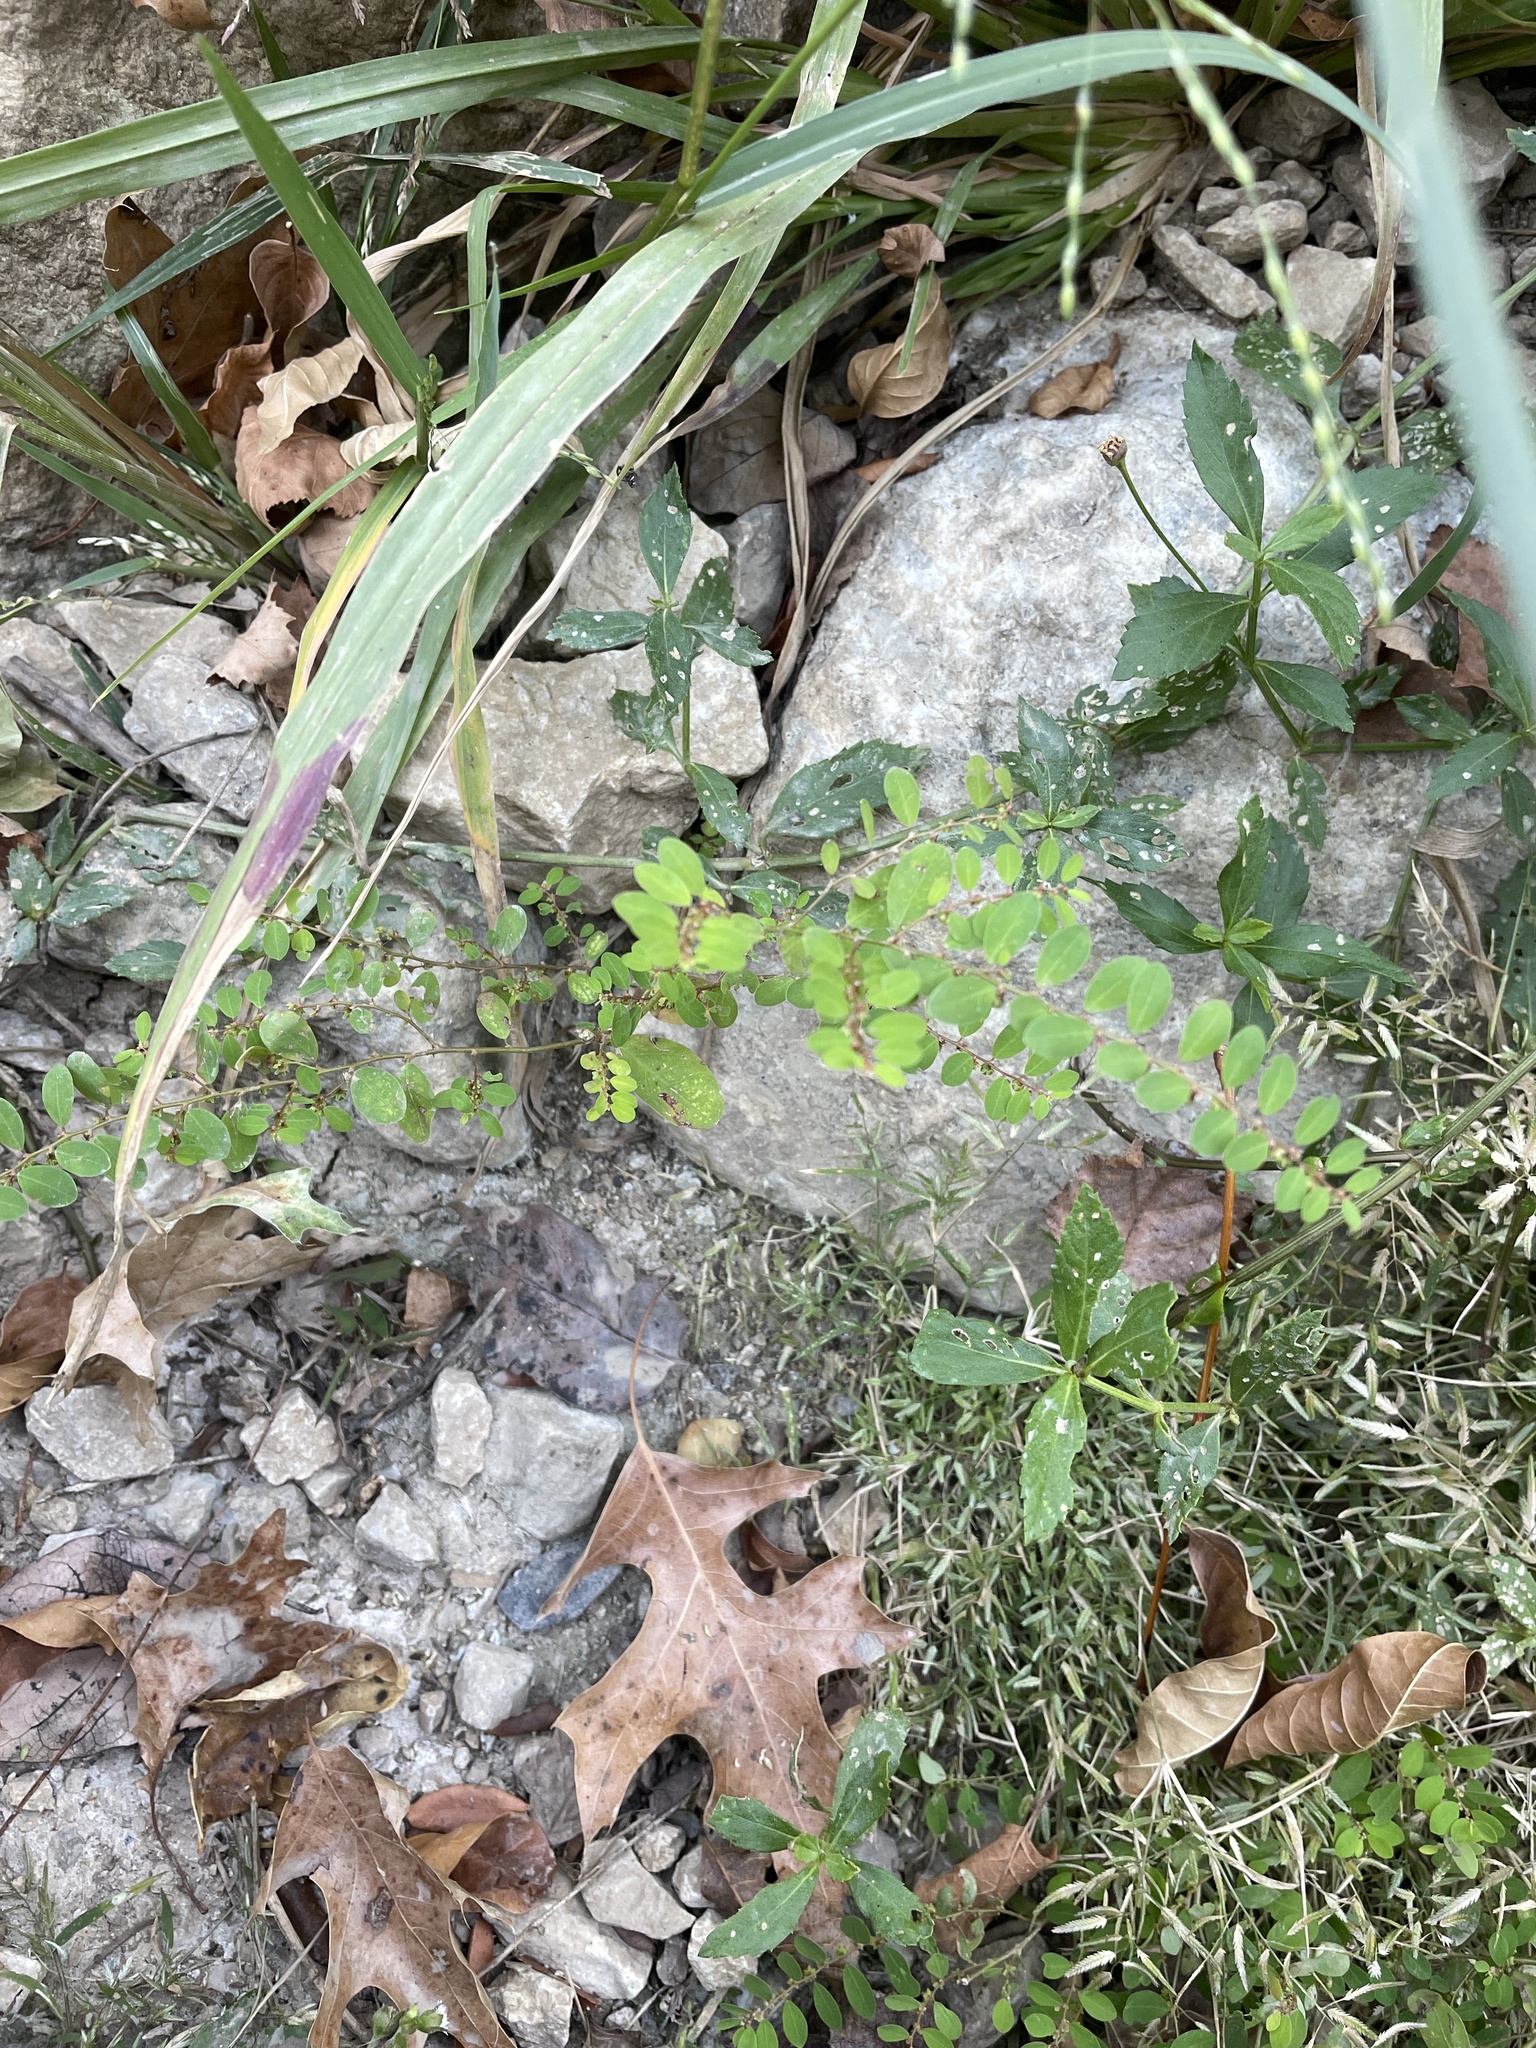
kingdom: Plantae
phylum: Tracheophyta
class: Magnoliopsida
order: Malpighiales
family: Phyllanthaceae
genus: Phyllanthus
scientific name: Phyllanthus caroliniensis
